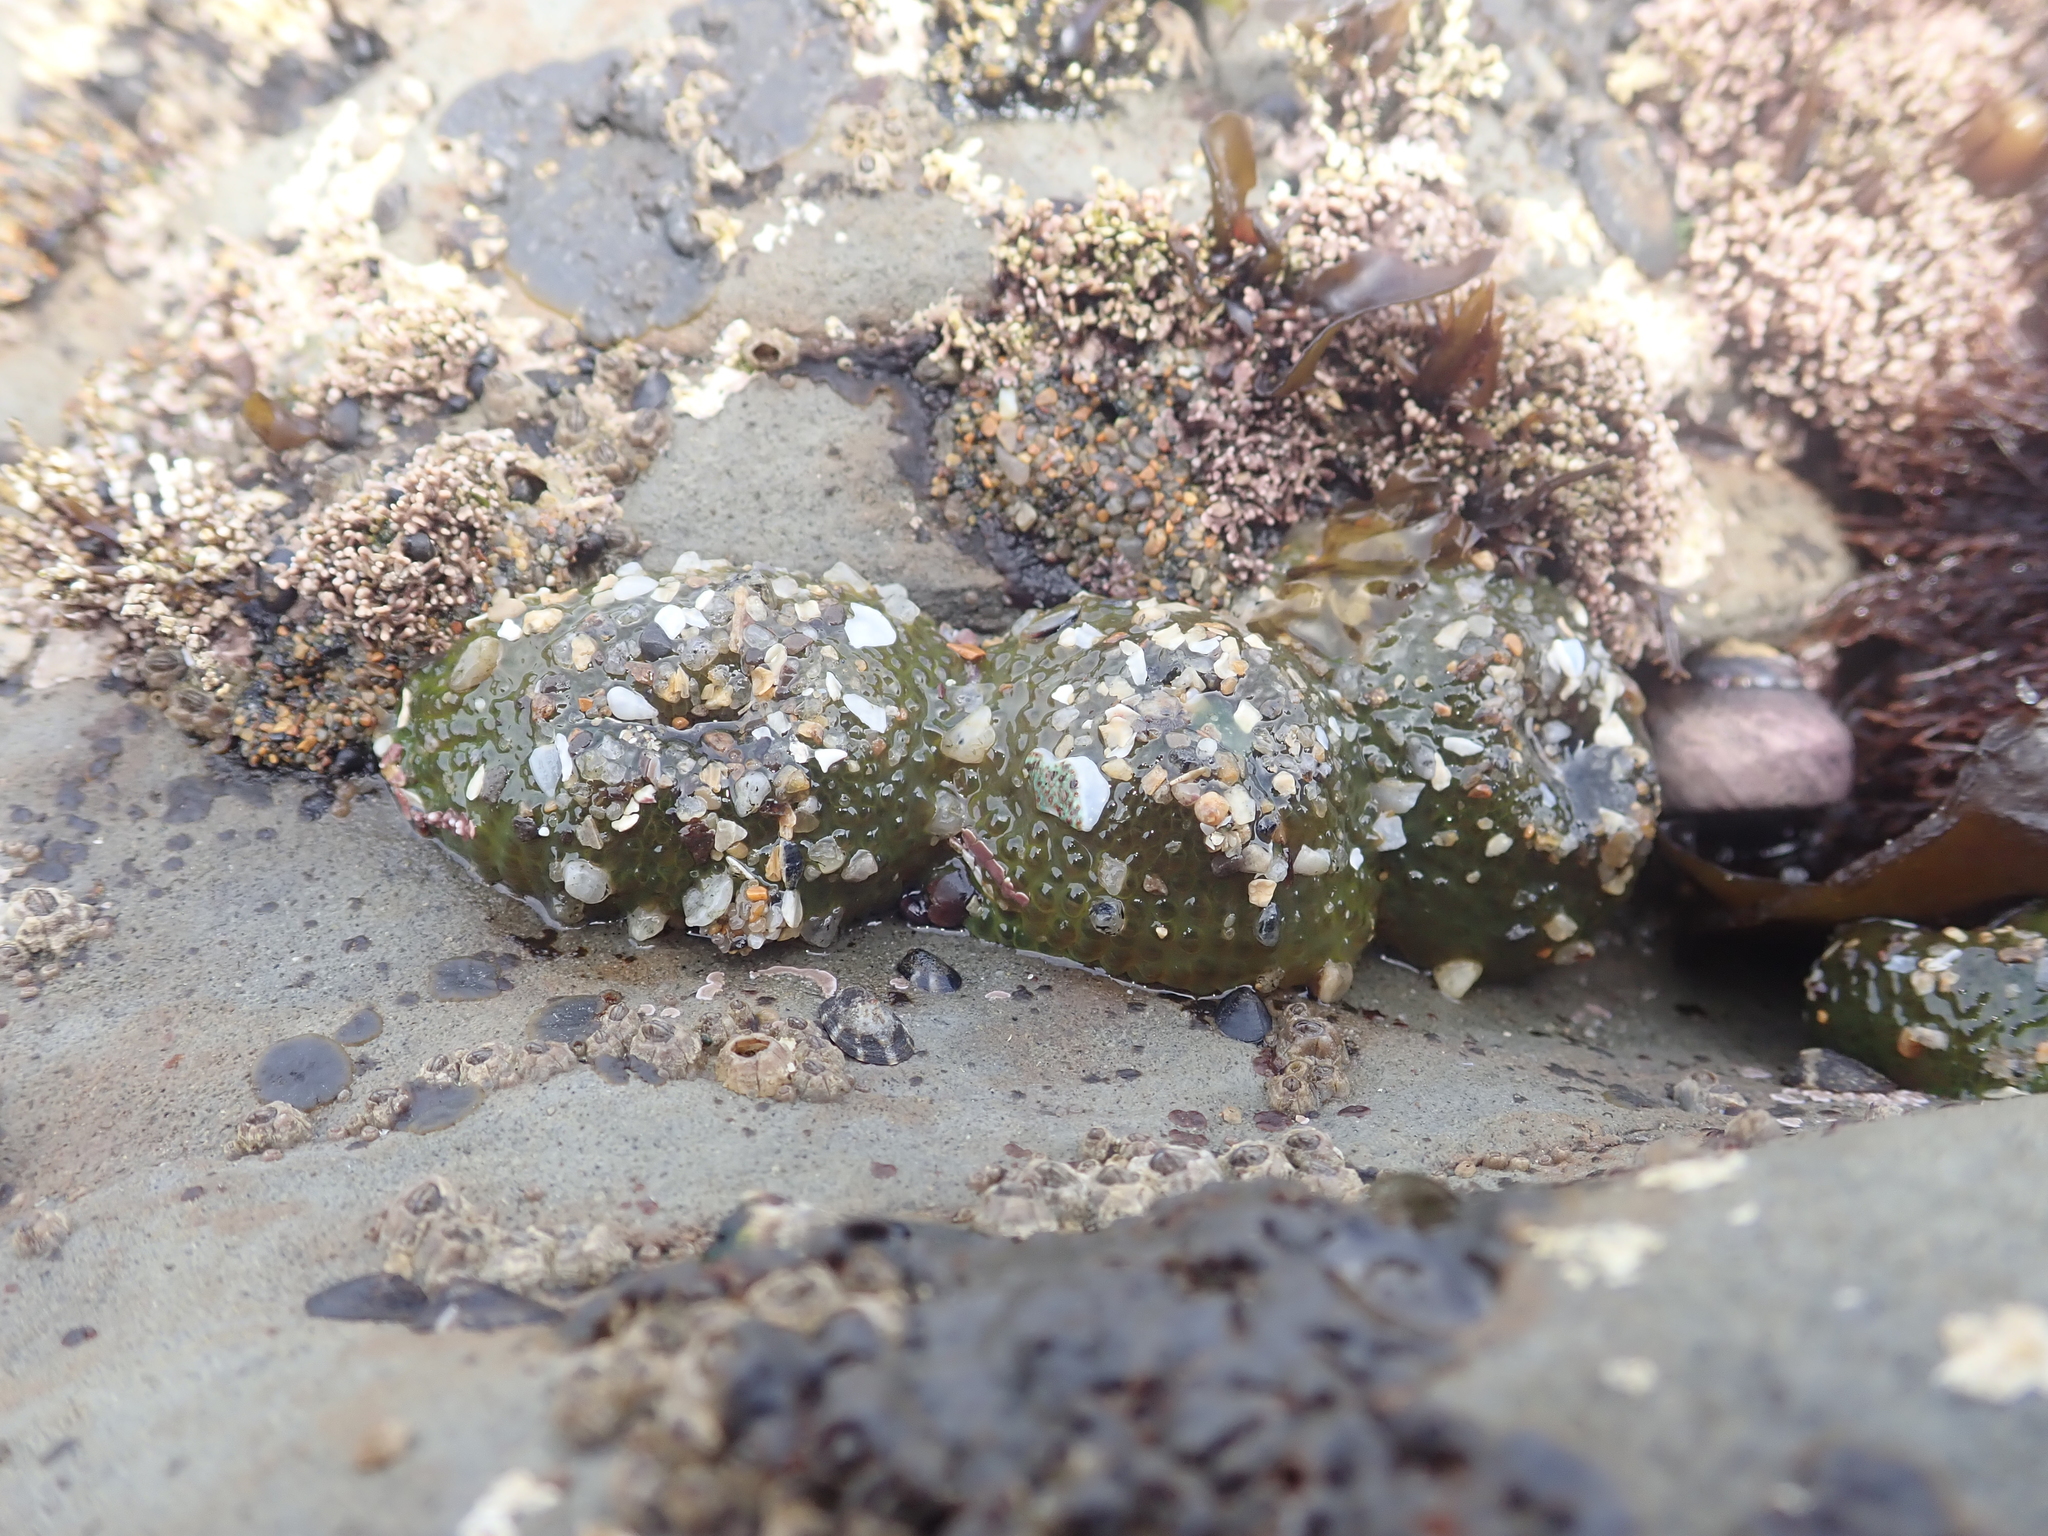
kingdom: Animalia
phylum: Cnidaria
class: Anthozoa
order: Actiniaria
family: Actiniidae
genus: Anthopleura
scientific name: Anthopleura elegantissima
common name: Clonal anemone
